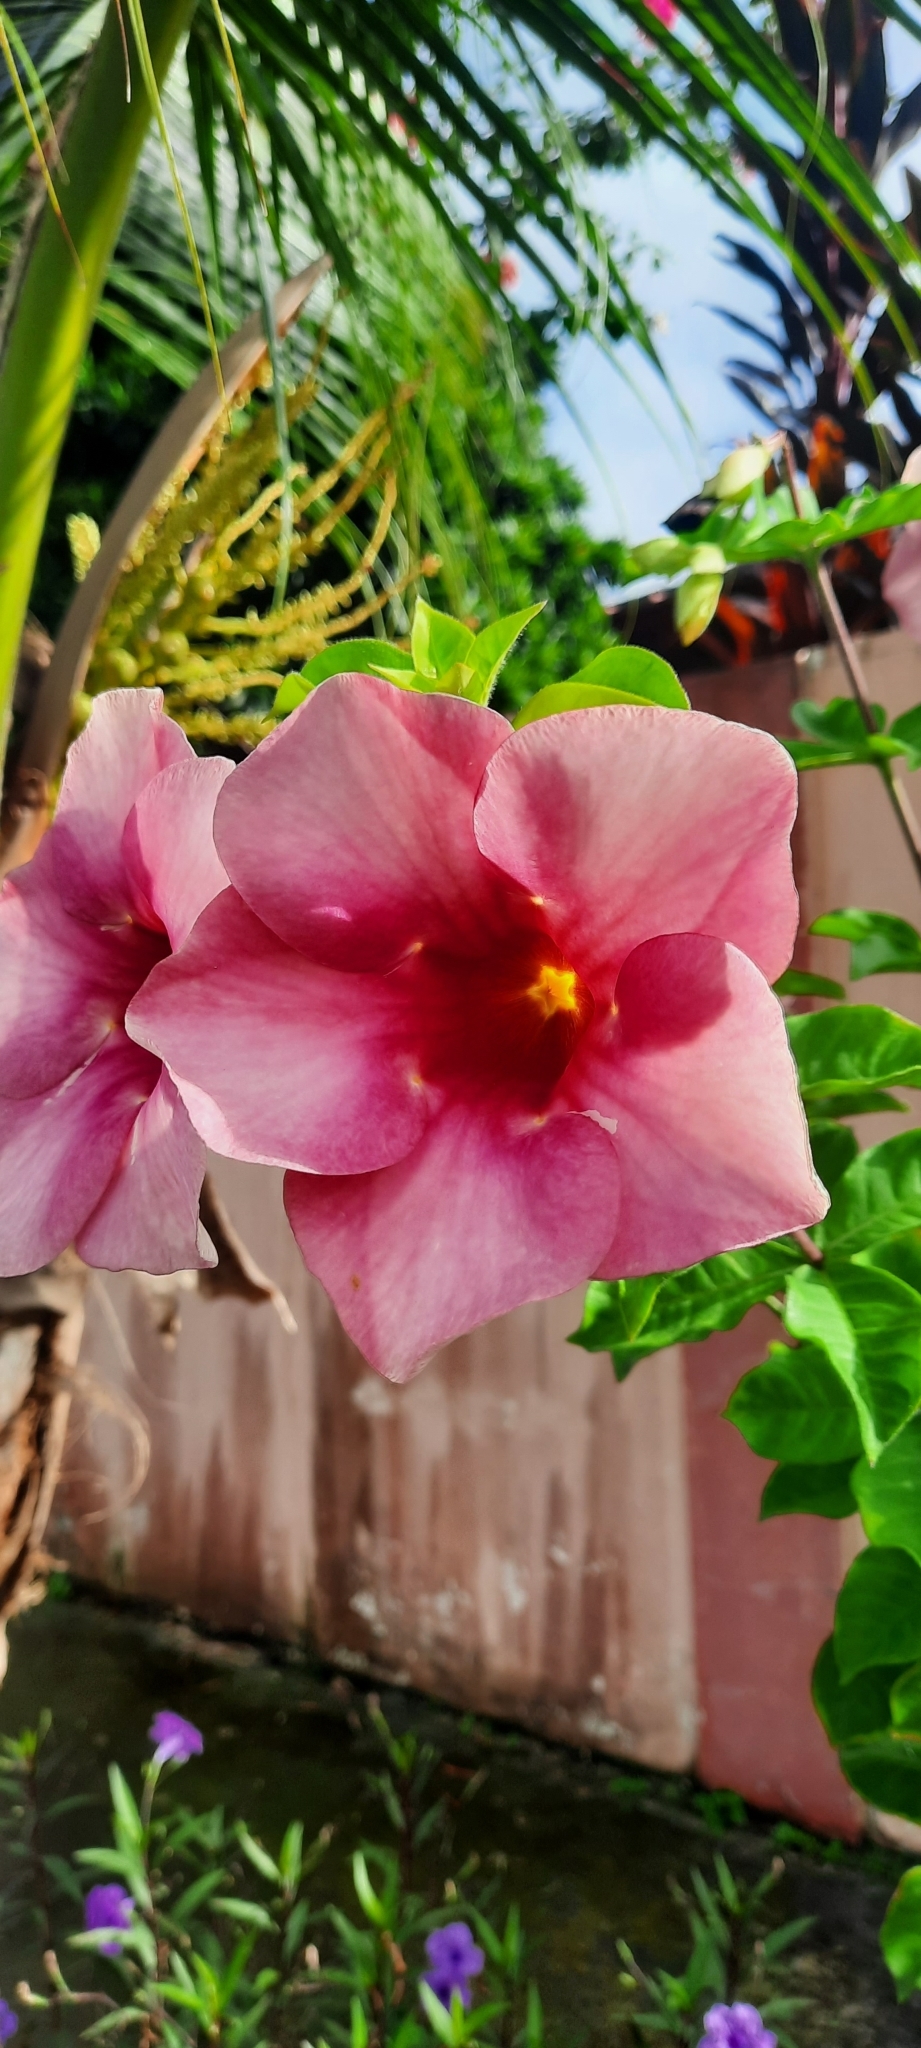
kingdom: Plantae
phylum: Tracheophyta
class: Magnoliopsida
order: Gentianales
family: Apocynaceae
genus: Allamanda
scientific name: Allamanda blanchetii
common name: Purple allamanda
